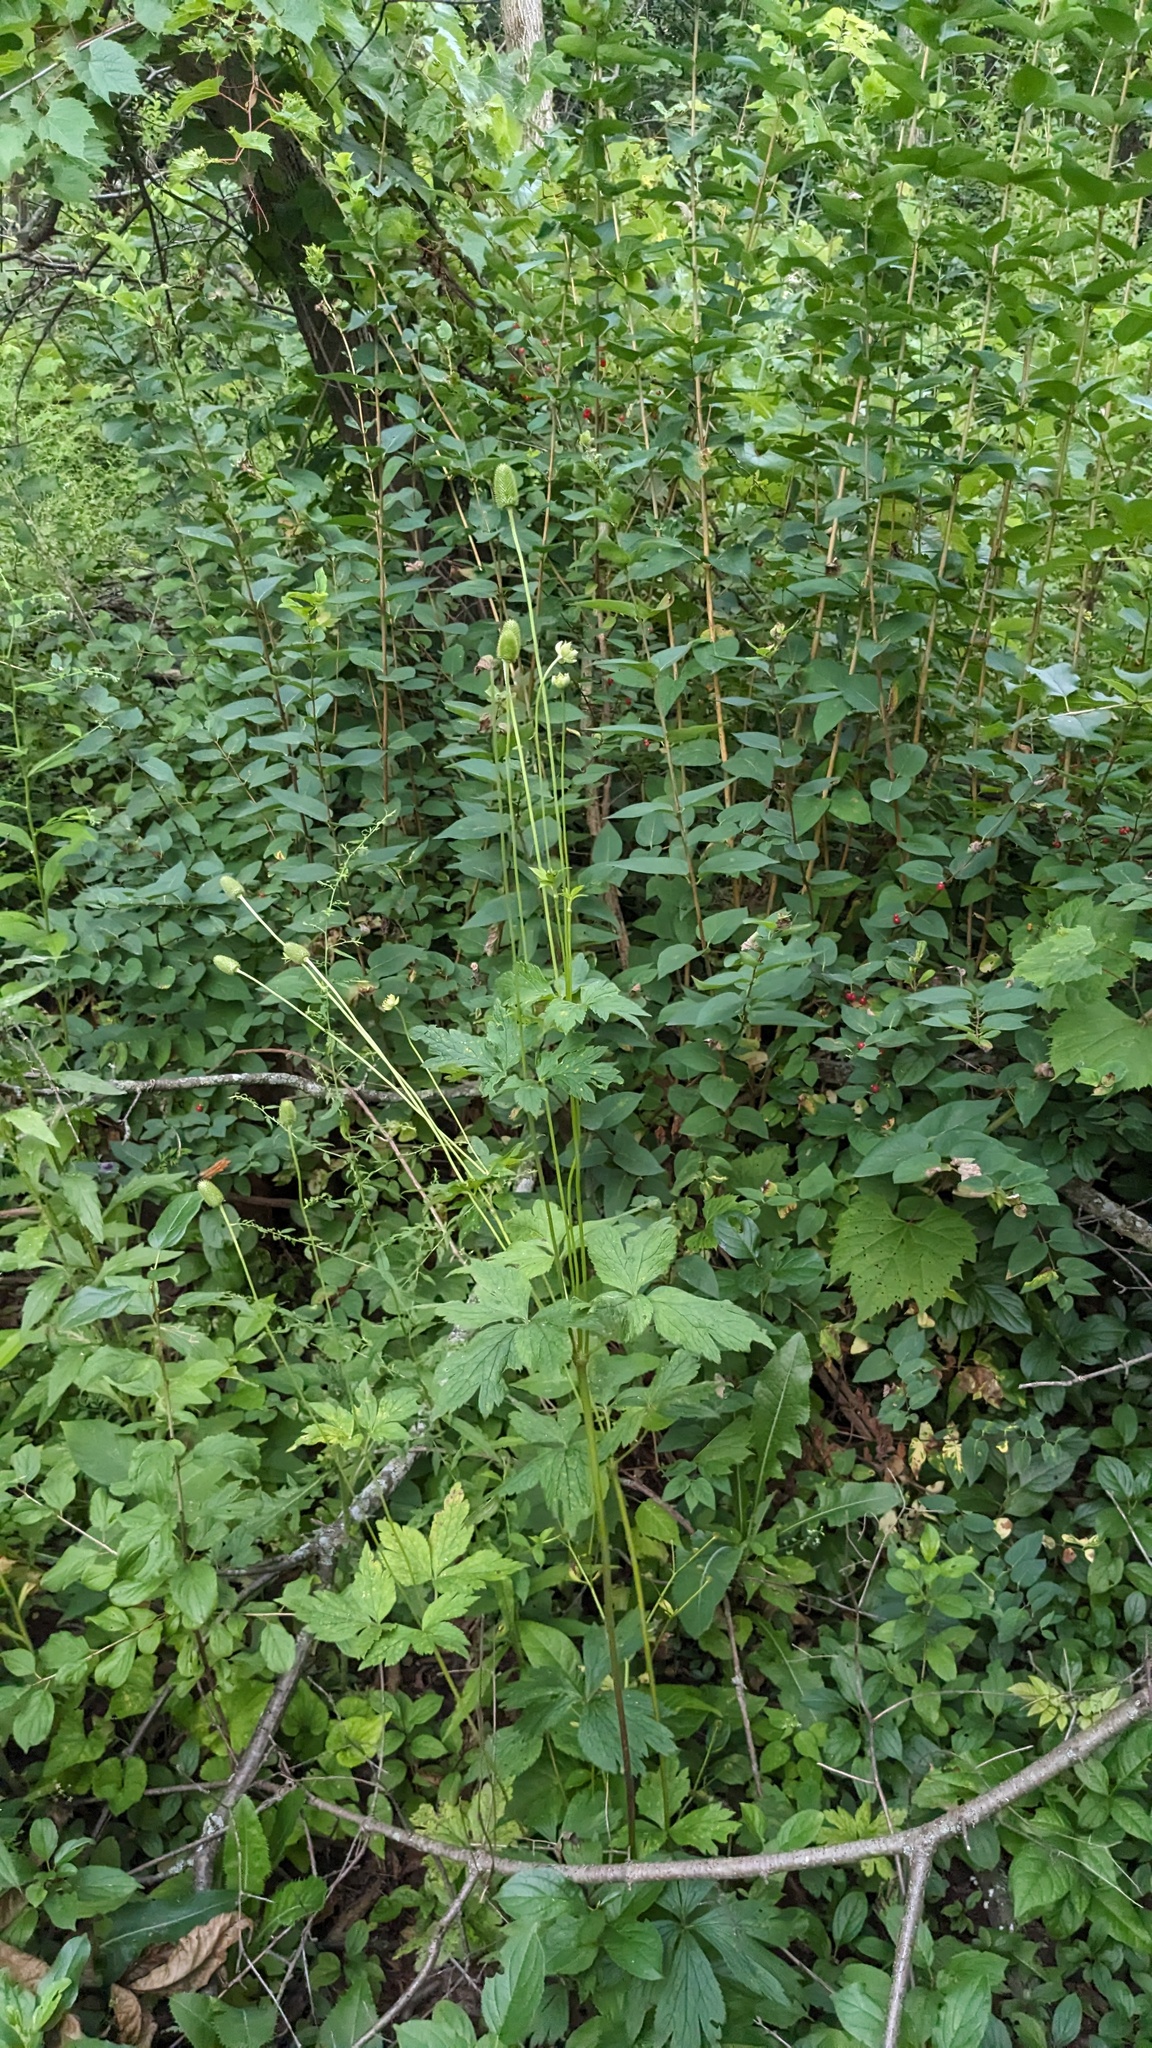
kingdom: Plantae
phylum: Tracheophyta
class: Magnoliopsida
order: Ranunculales
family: Ranunculaceae
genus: Anemone
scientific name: Anemone virginiana
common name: Tall anemone
